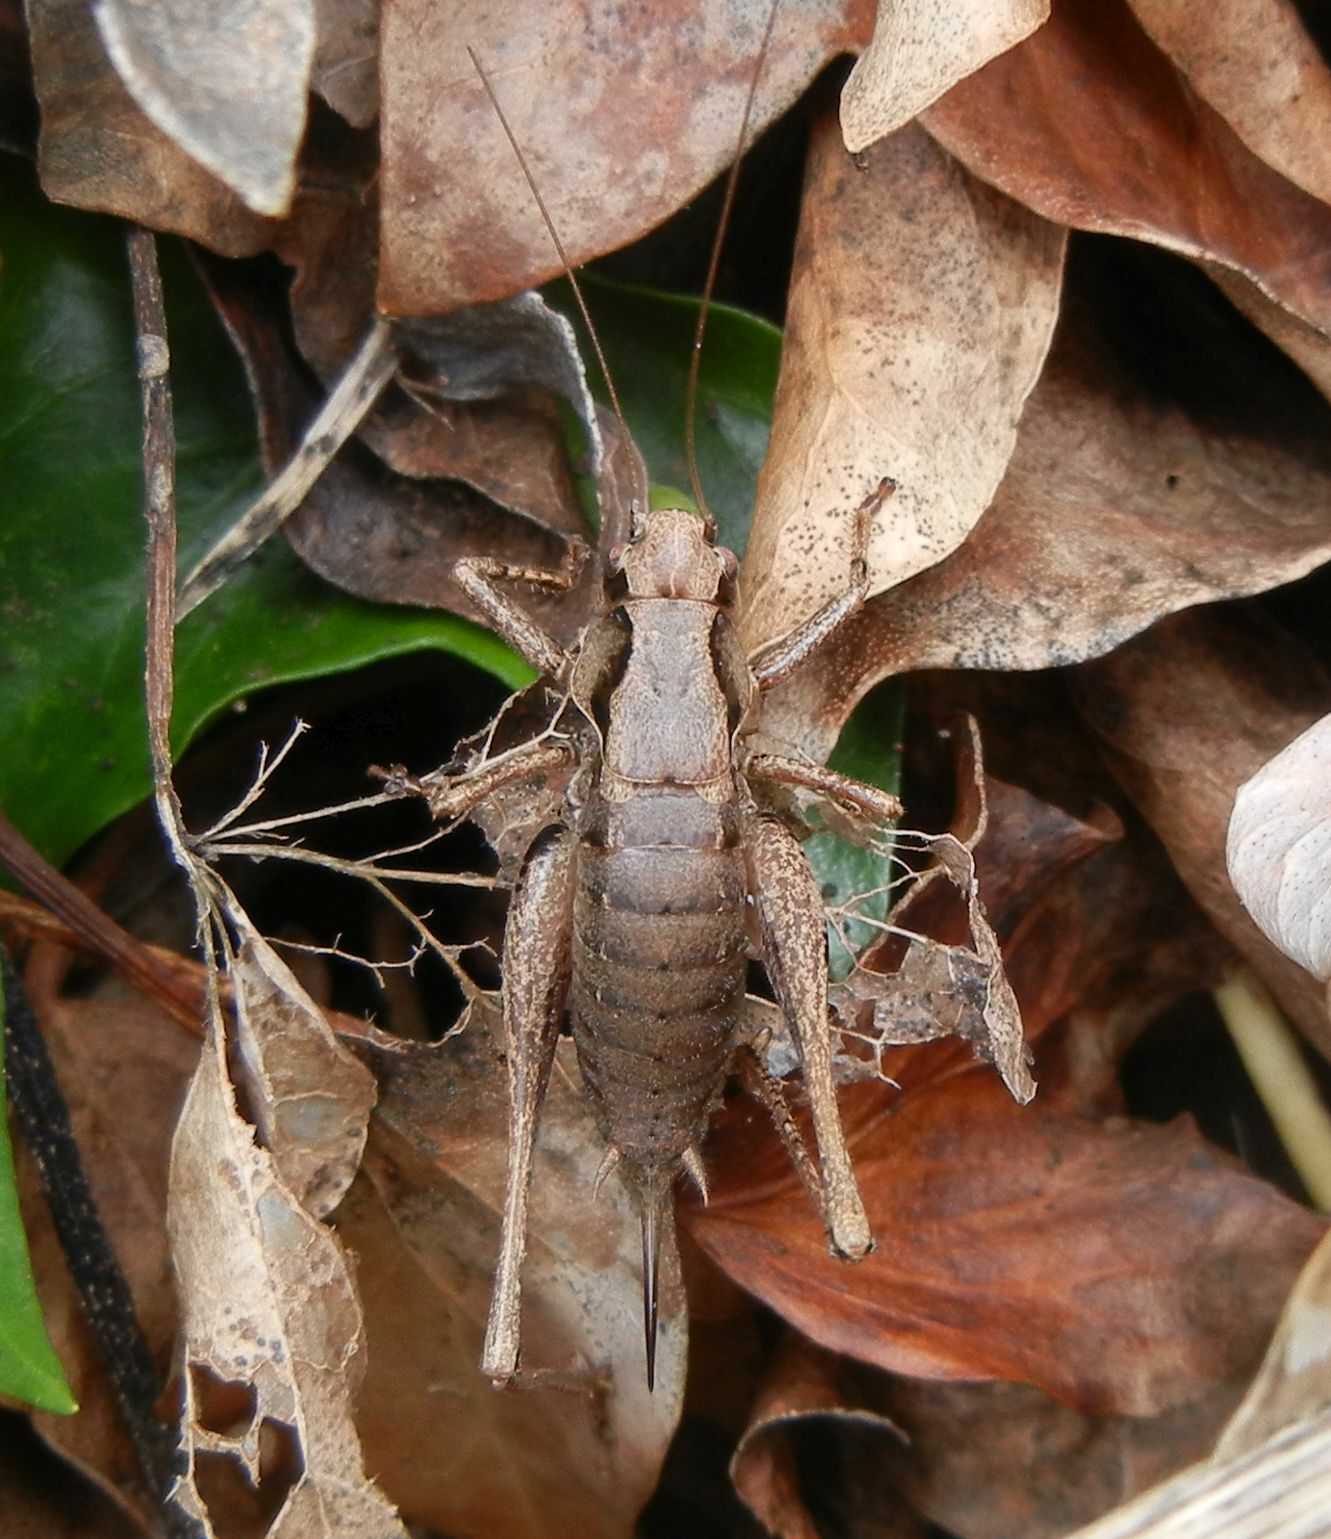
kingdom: Animalia
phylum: Arthropoda
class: Insecta
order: Orthoptera
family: Tettigoniidae
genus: Pholidoptera
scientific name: Pholidoptera griseoaptera
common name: Dark bush-cricket
